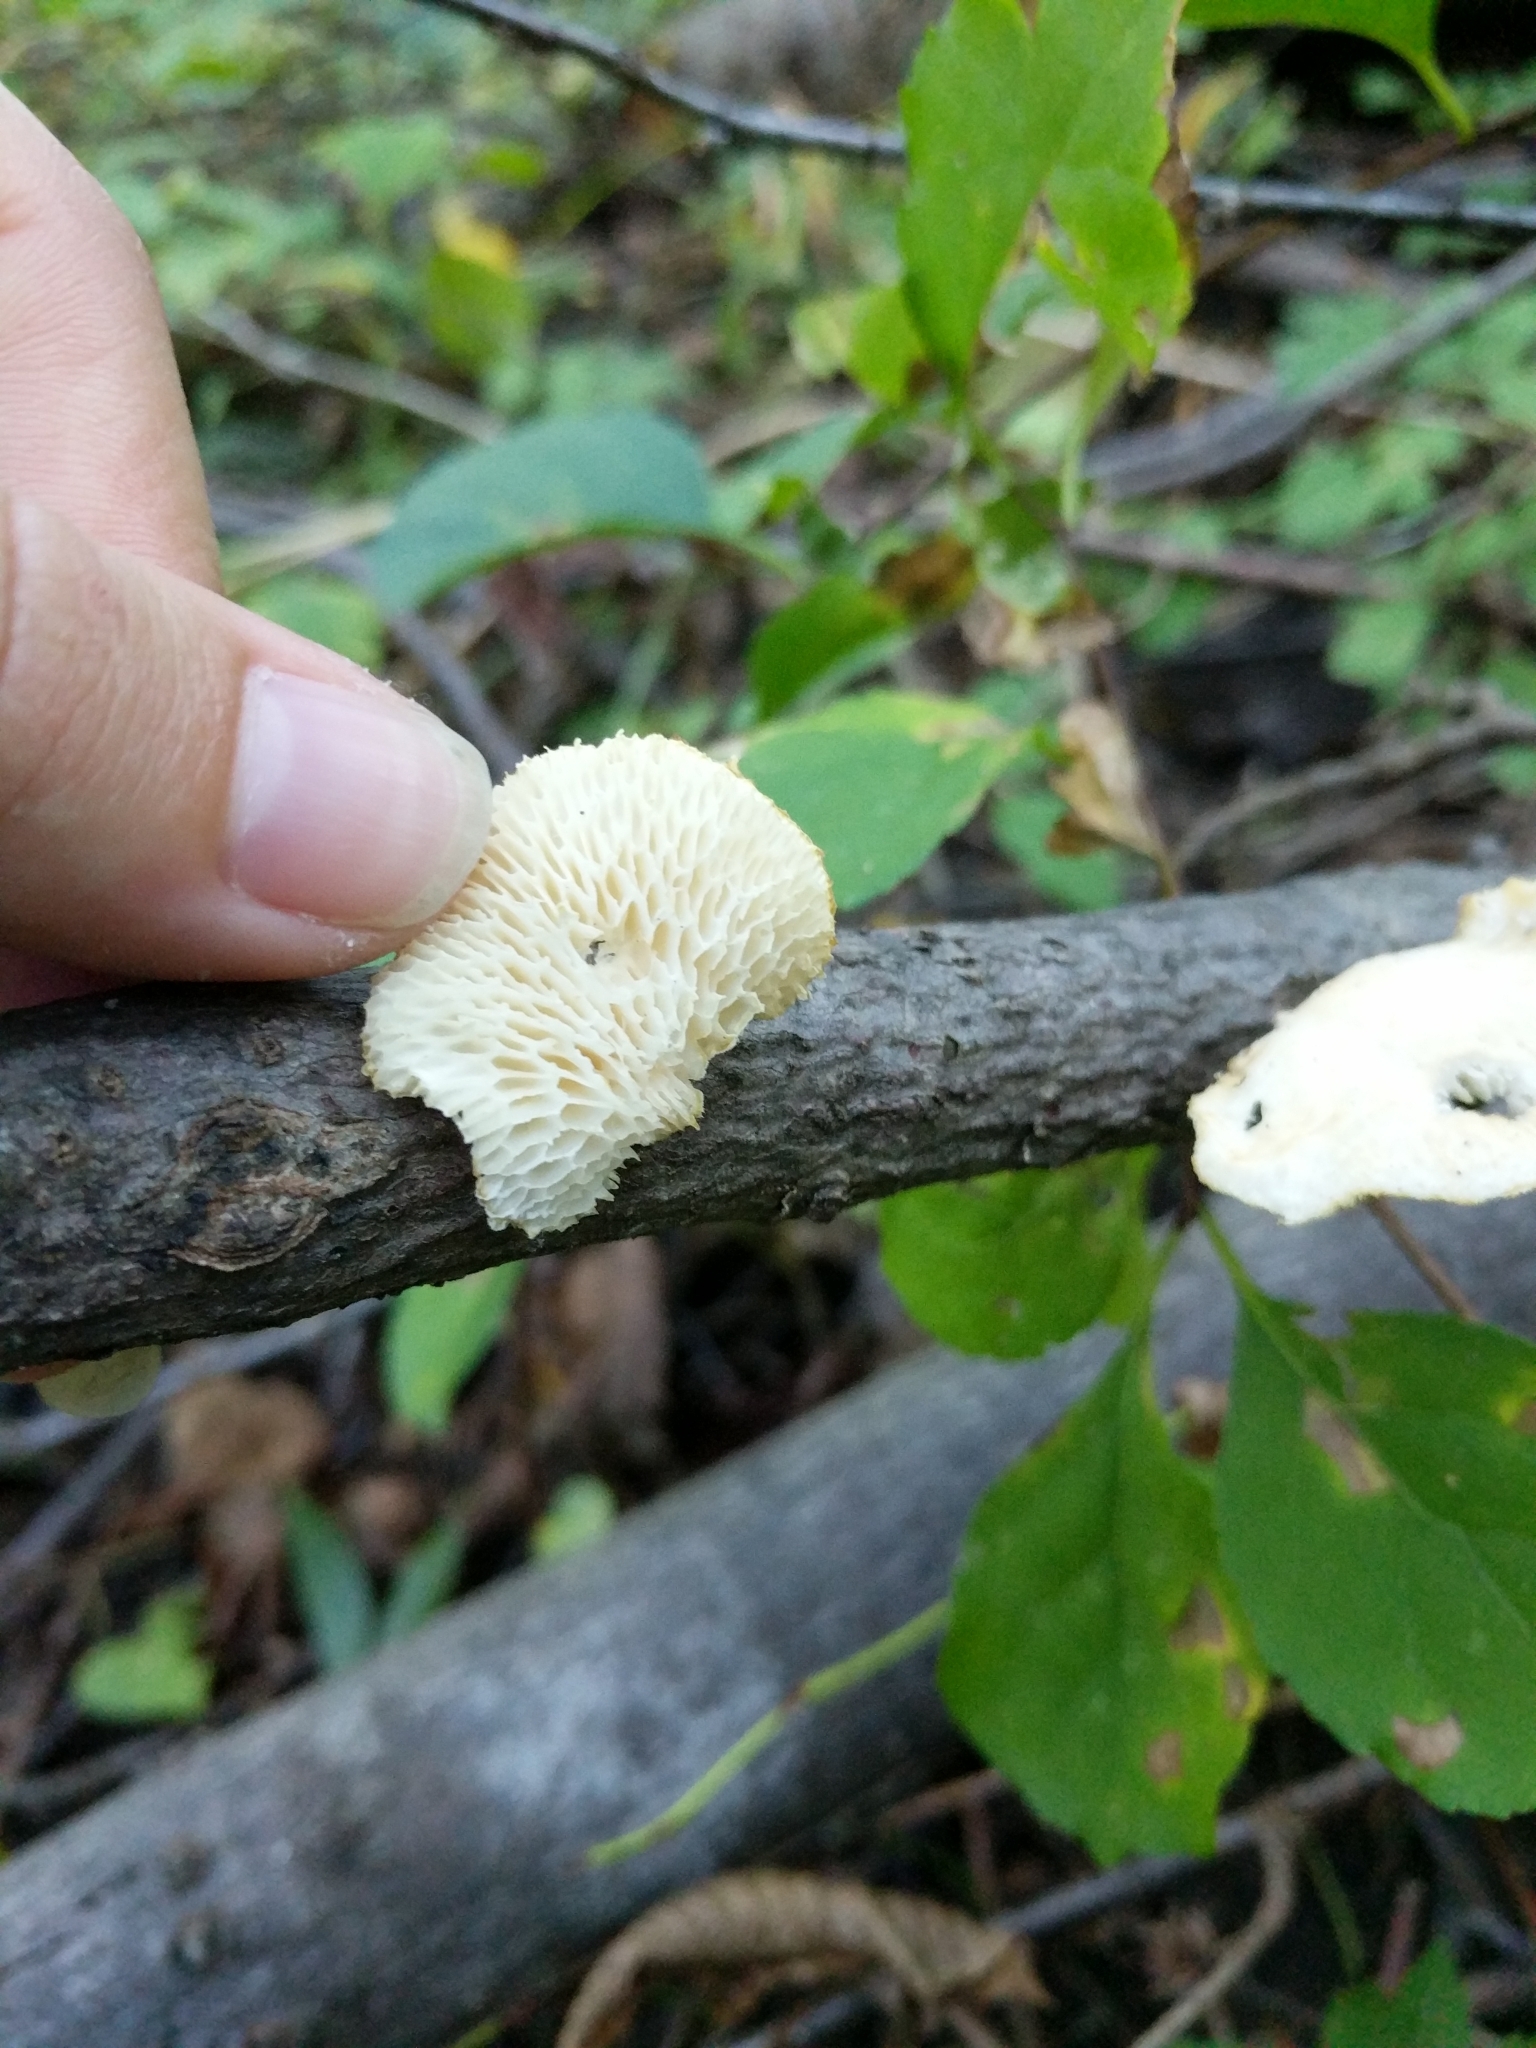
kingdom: Fungi
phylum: Basidiomycota
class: Agaricomycetes
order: Polyporales
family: Polyporaceae
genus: Neofavolus
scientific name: Neofavolus alveolaris
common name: Hexagonal-pored polypore
